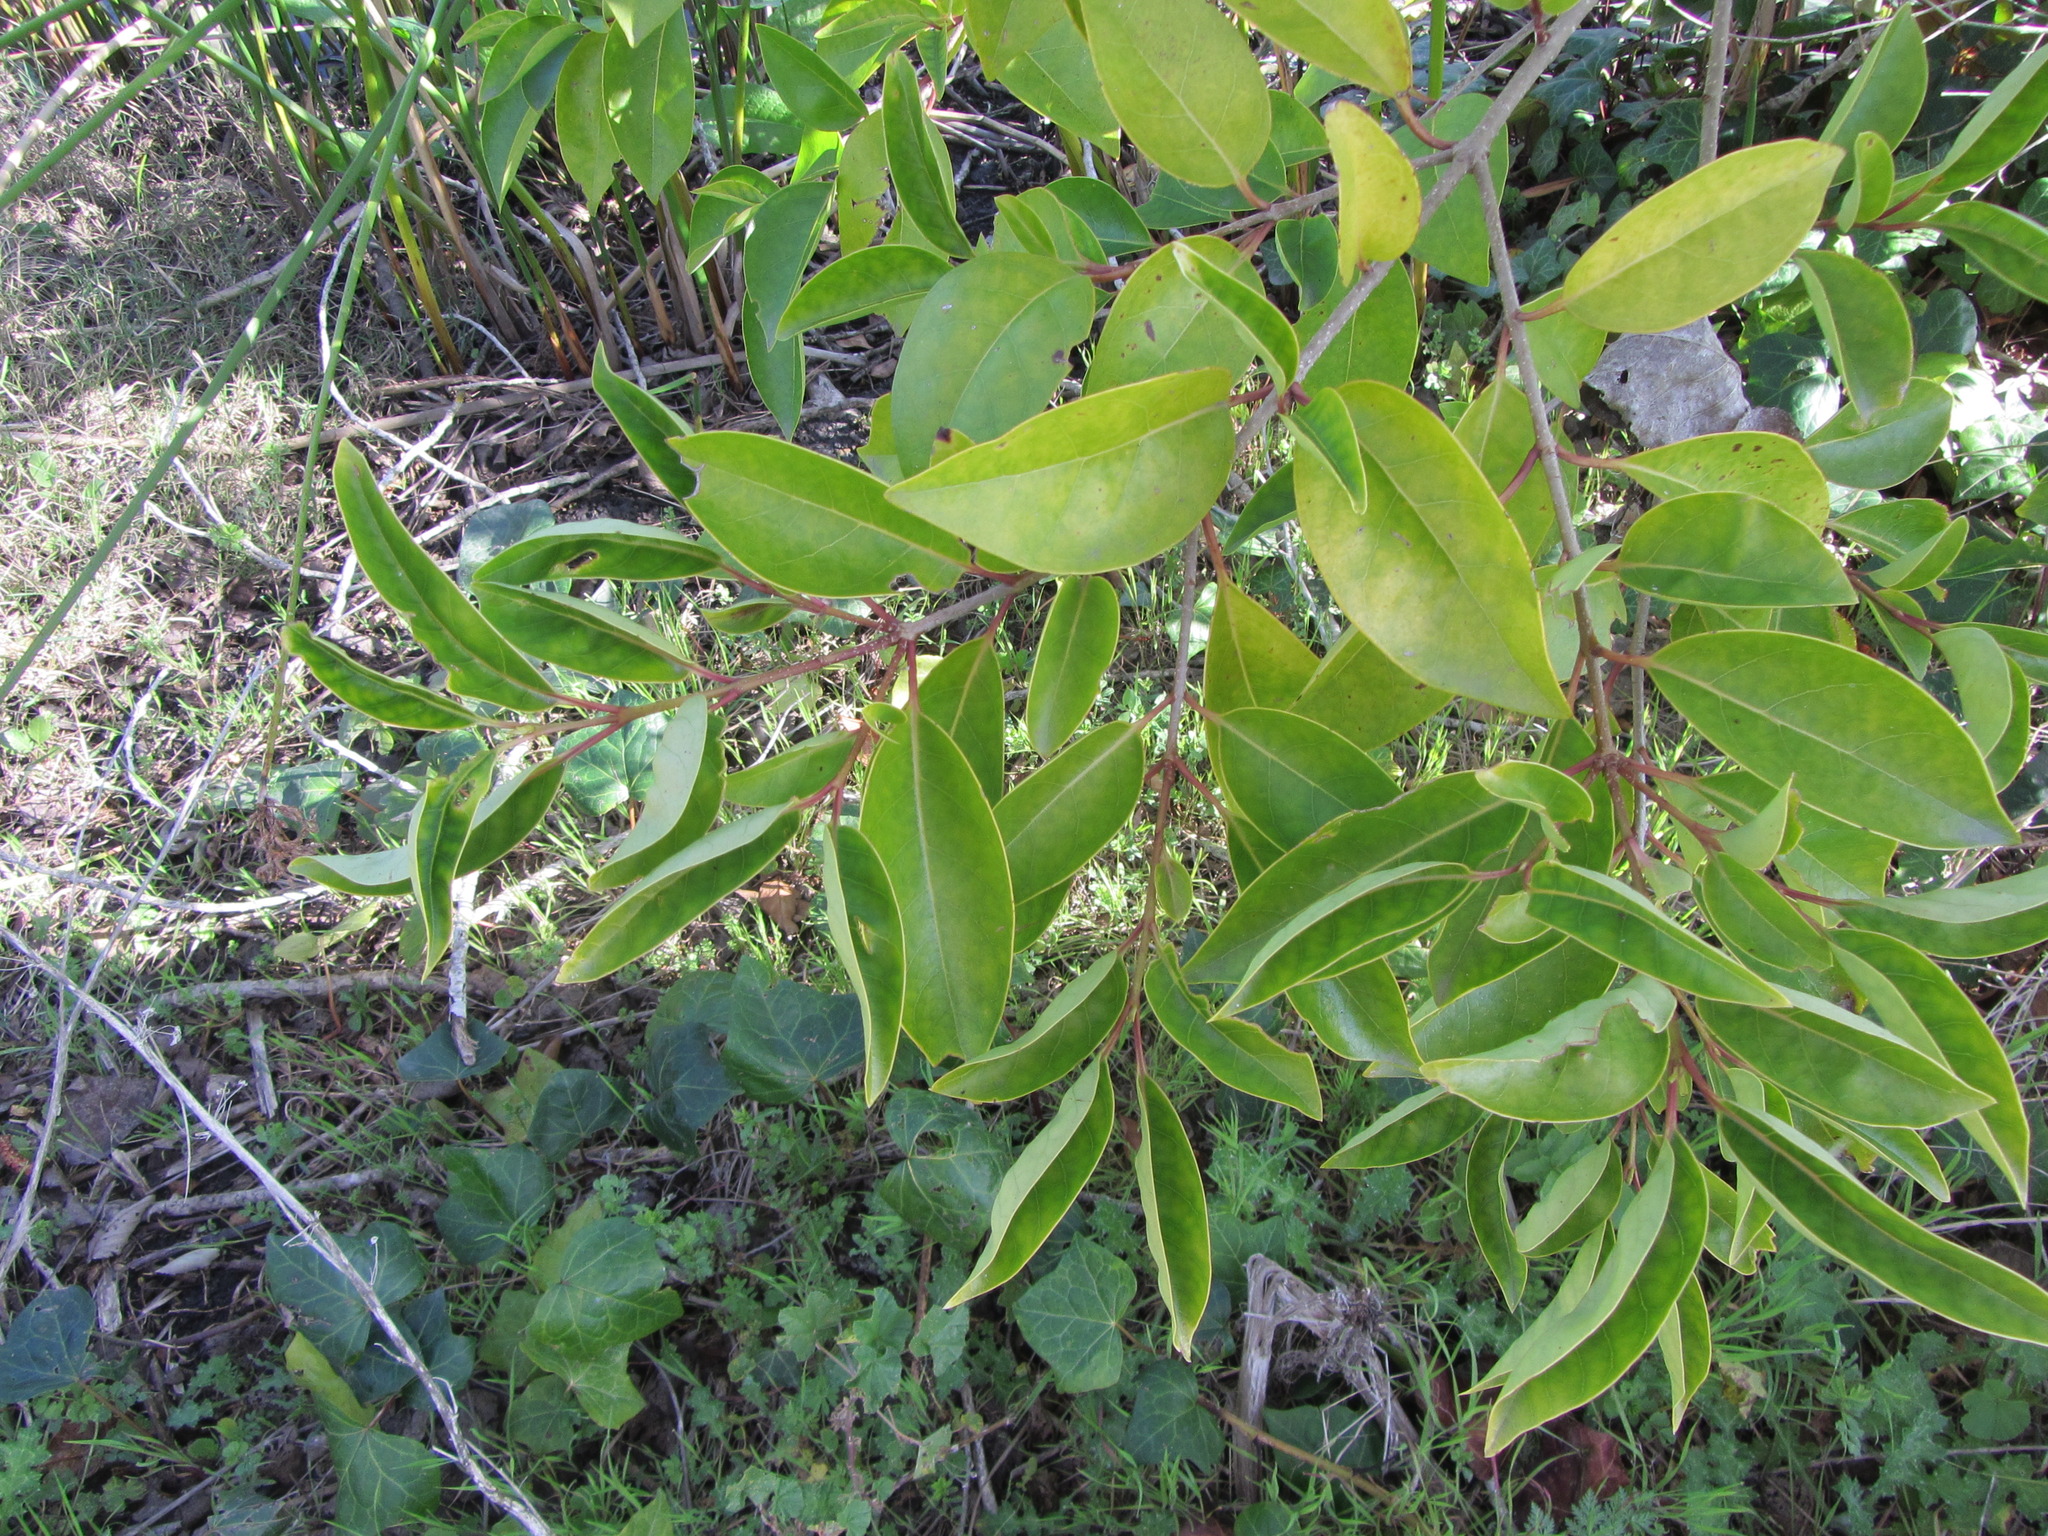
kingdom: Plantae
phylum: Tracheophyta
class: Magnoliopsida
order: Lamiales
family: Oleaceae
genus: Ligustrum
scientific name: Ligustrum lucidum
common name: Glossy privet
